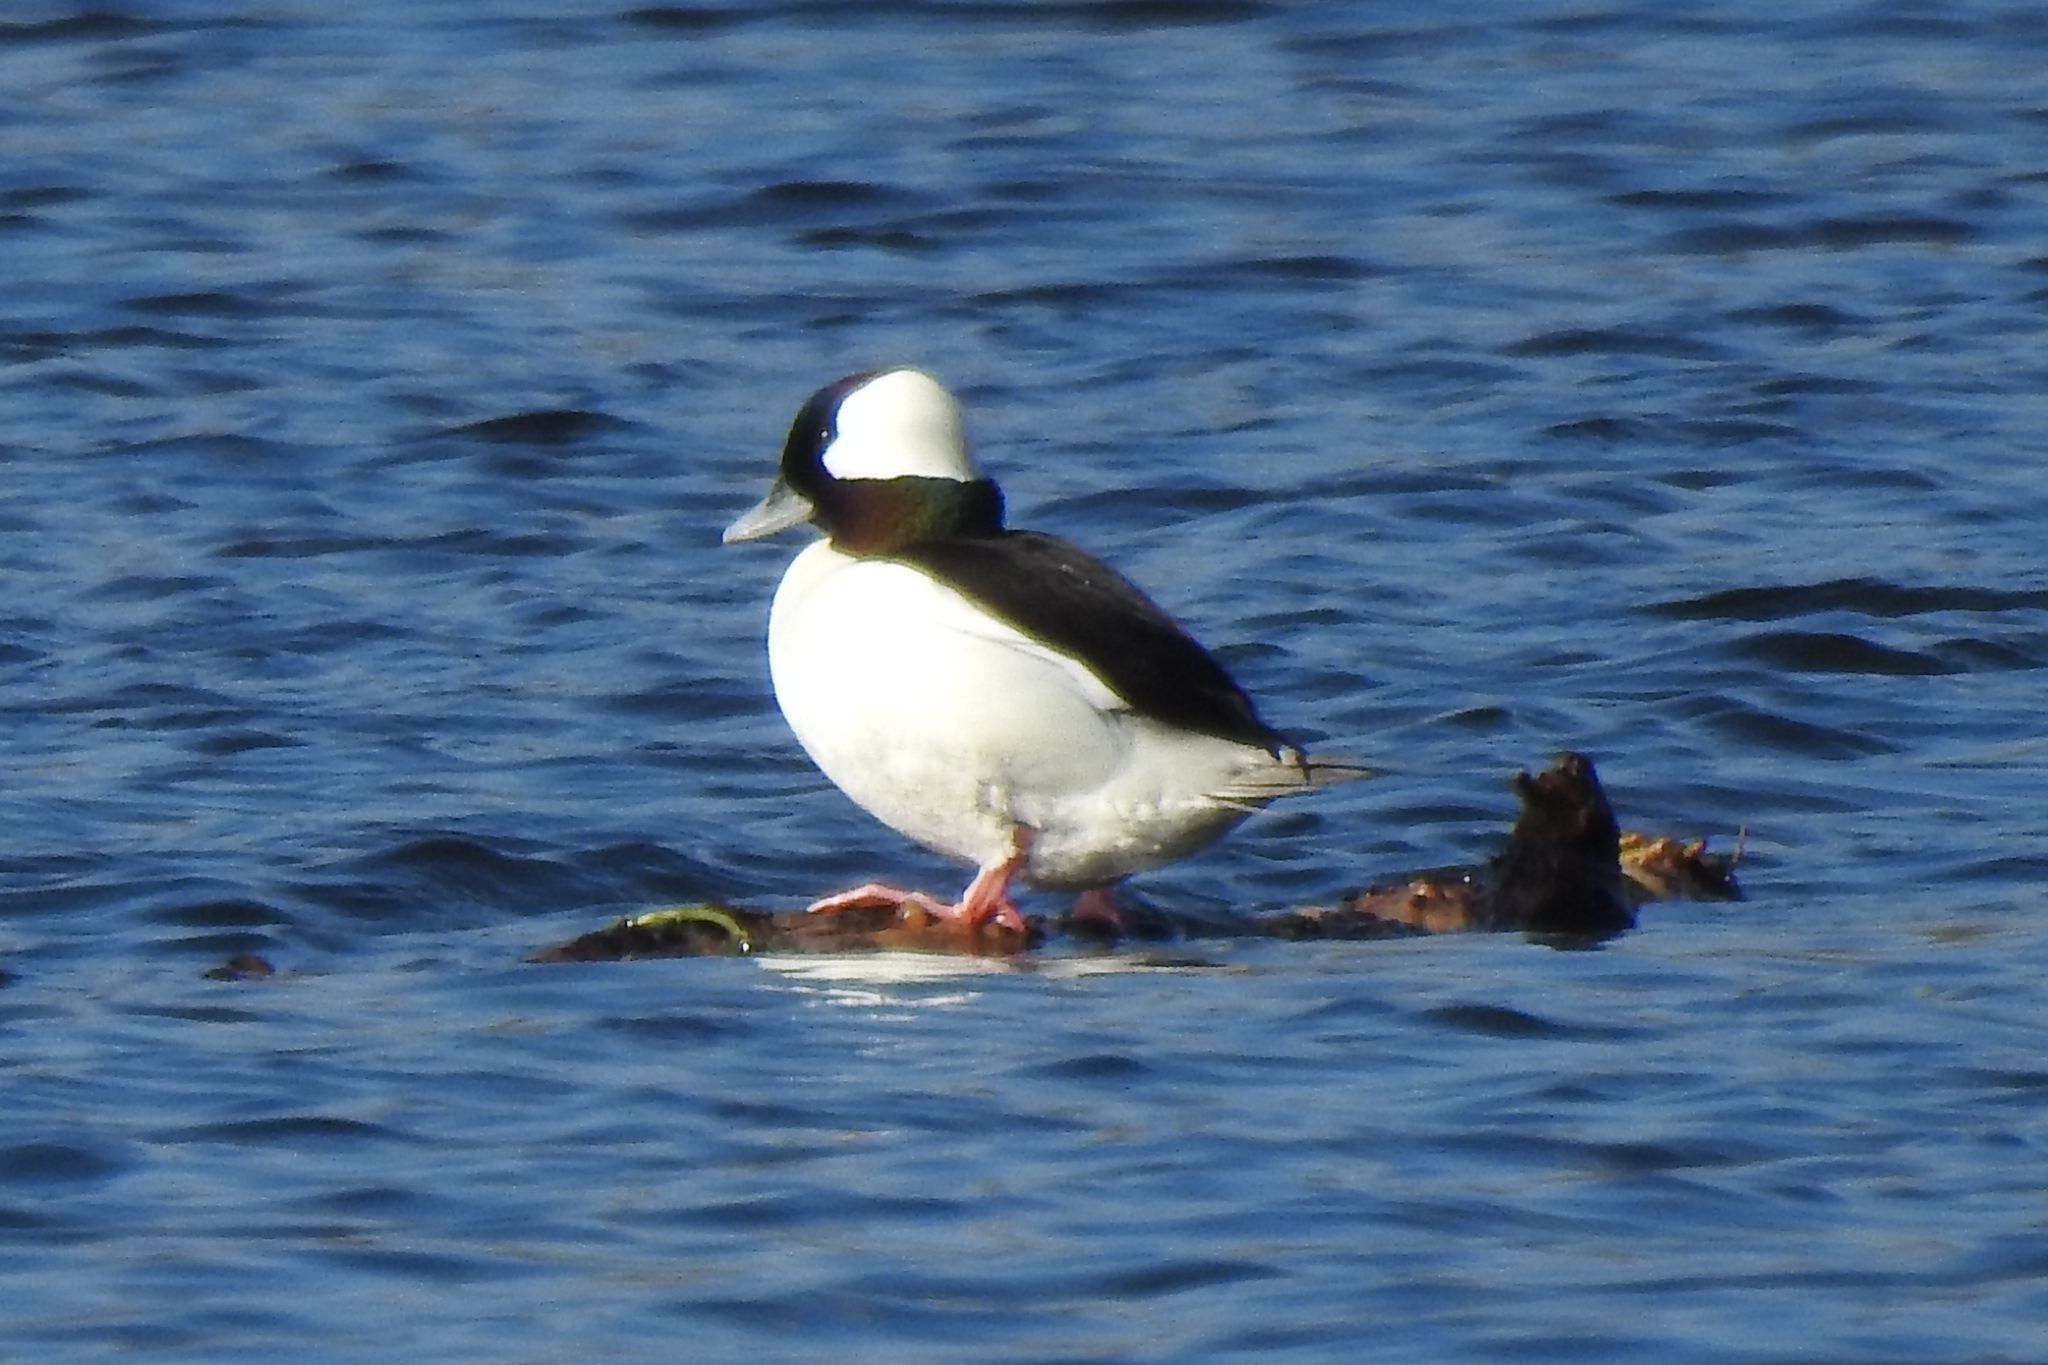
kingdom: Animalia
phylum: Chordata
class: Aves
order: Anseriformes
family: Anatidae
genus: Bucephala
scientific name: Bucephala albeola
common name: Bufflehead
